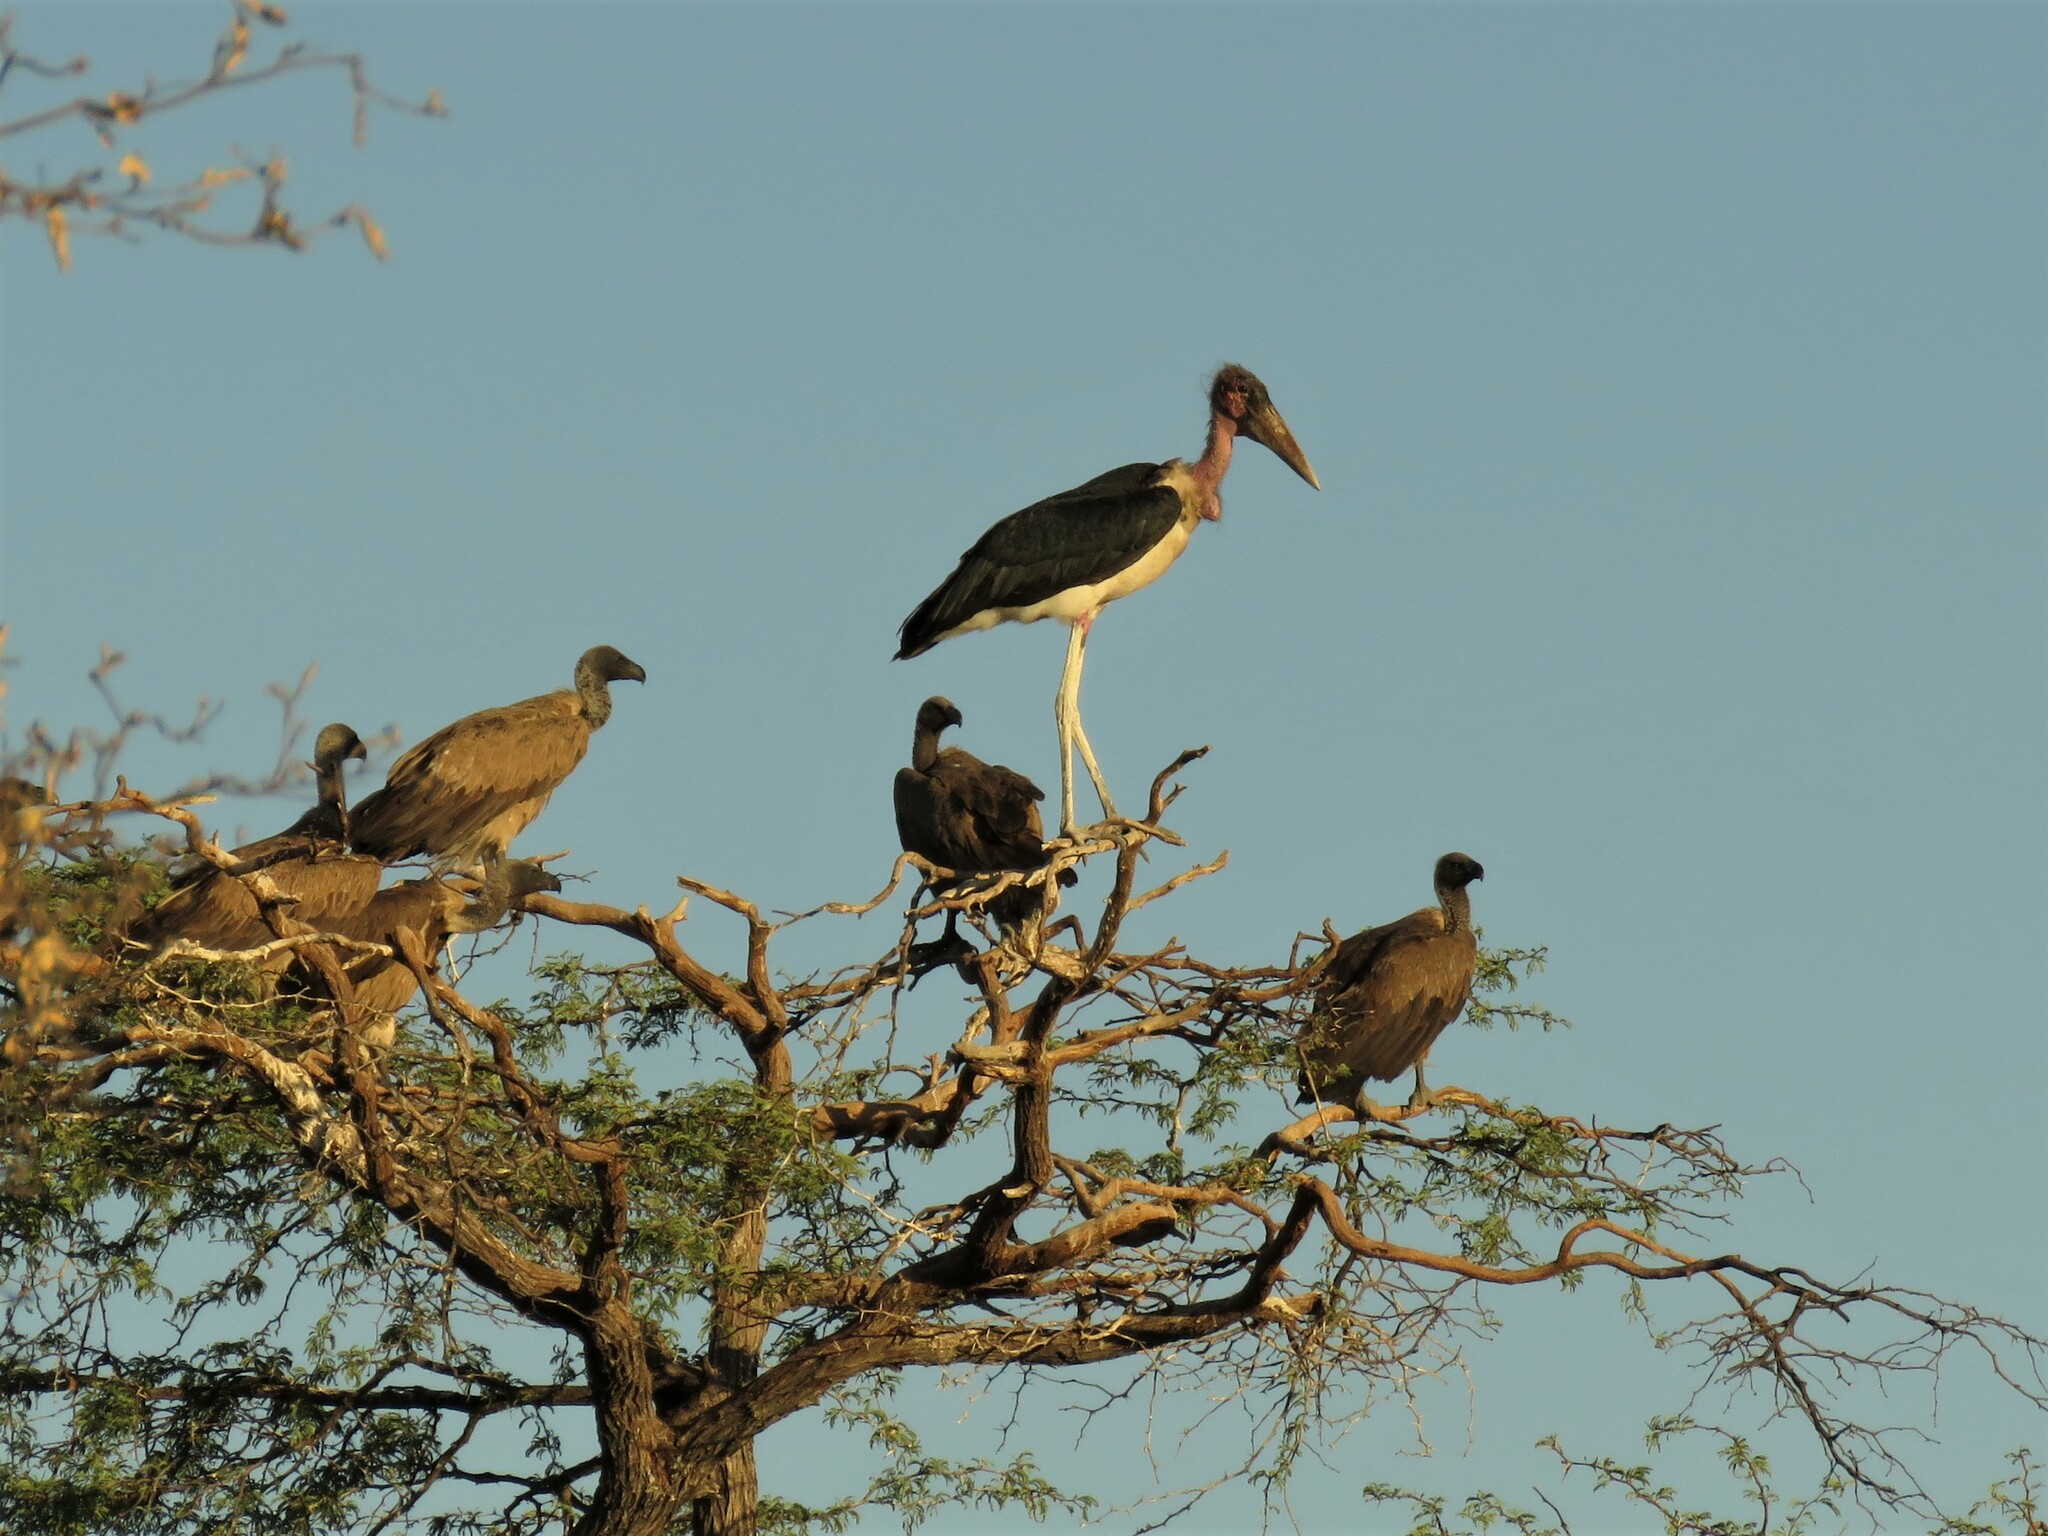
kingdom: Animalia
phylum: Chordata
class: Aves
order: Accipitriformes
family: Accipitridae
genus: Gyps
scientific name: Gyps africanus
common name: White-backed vulture
